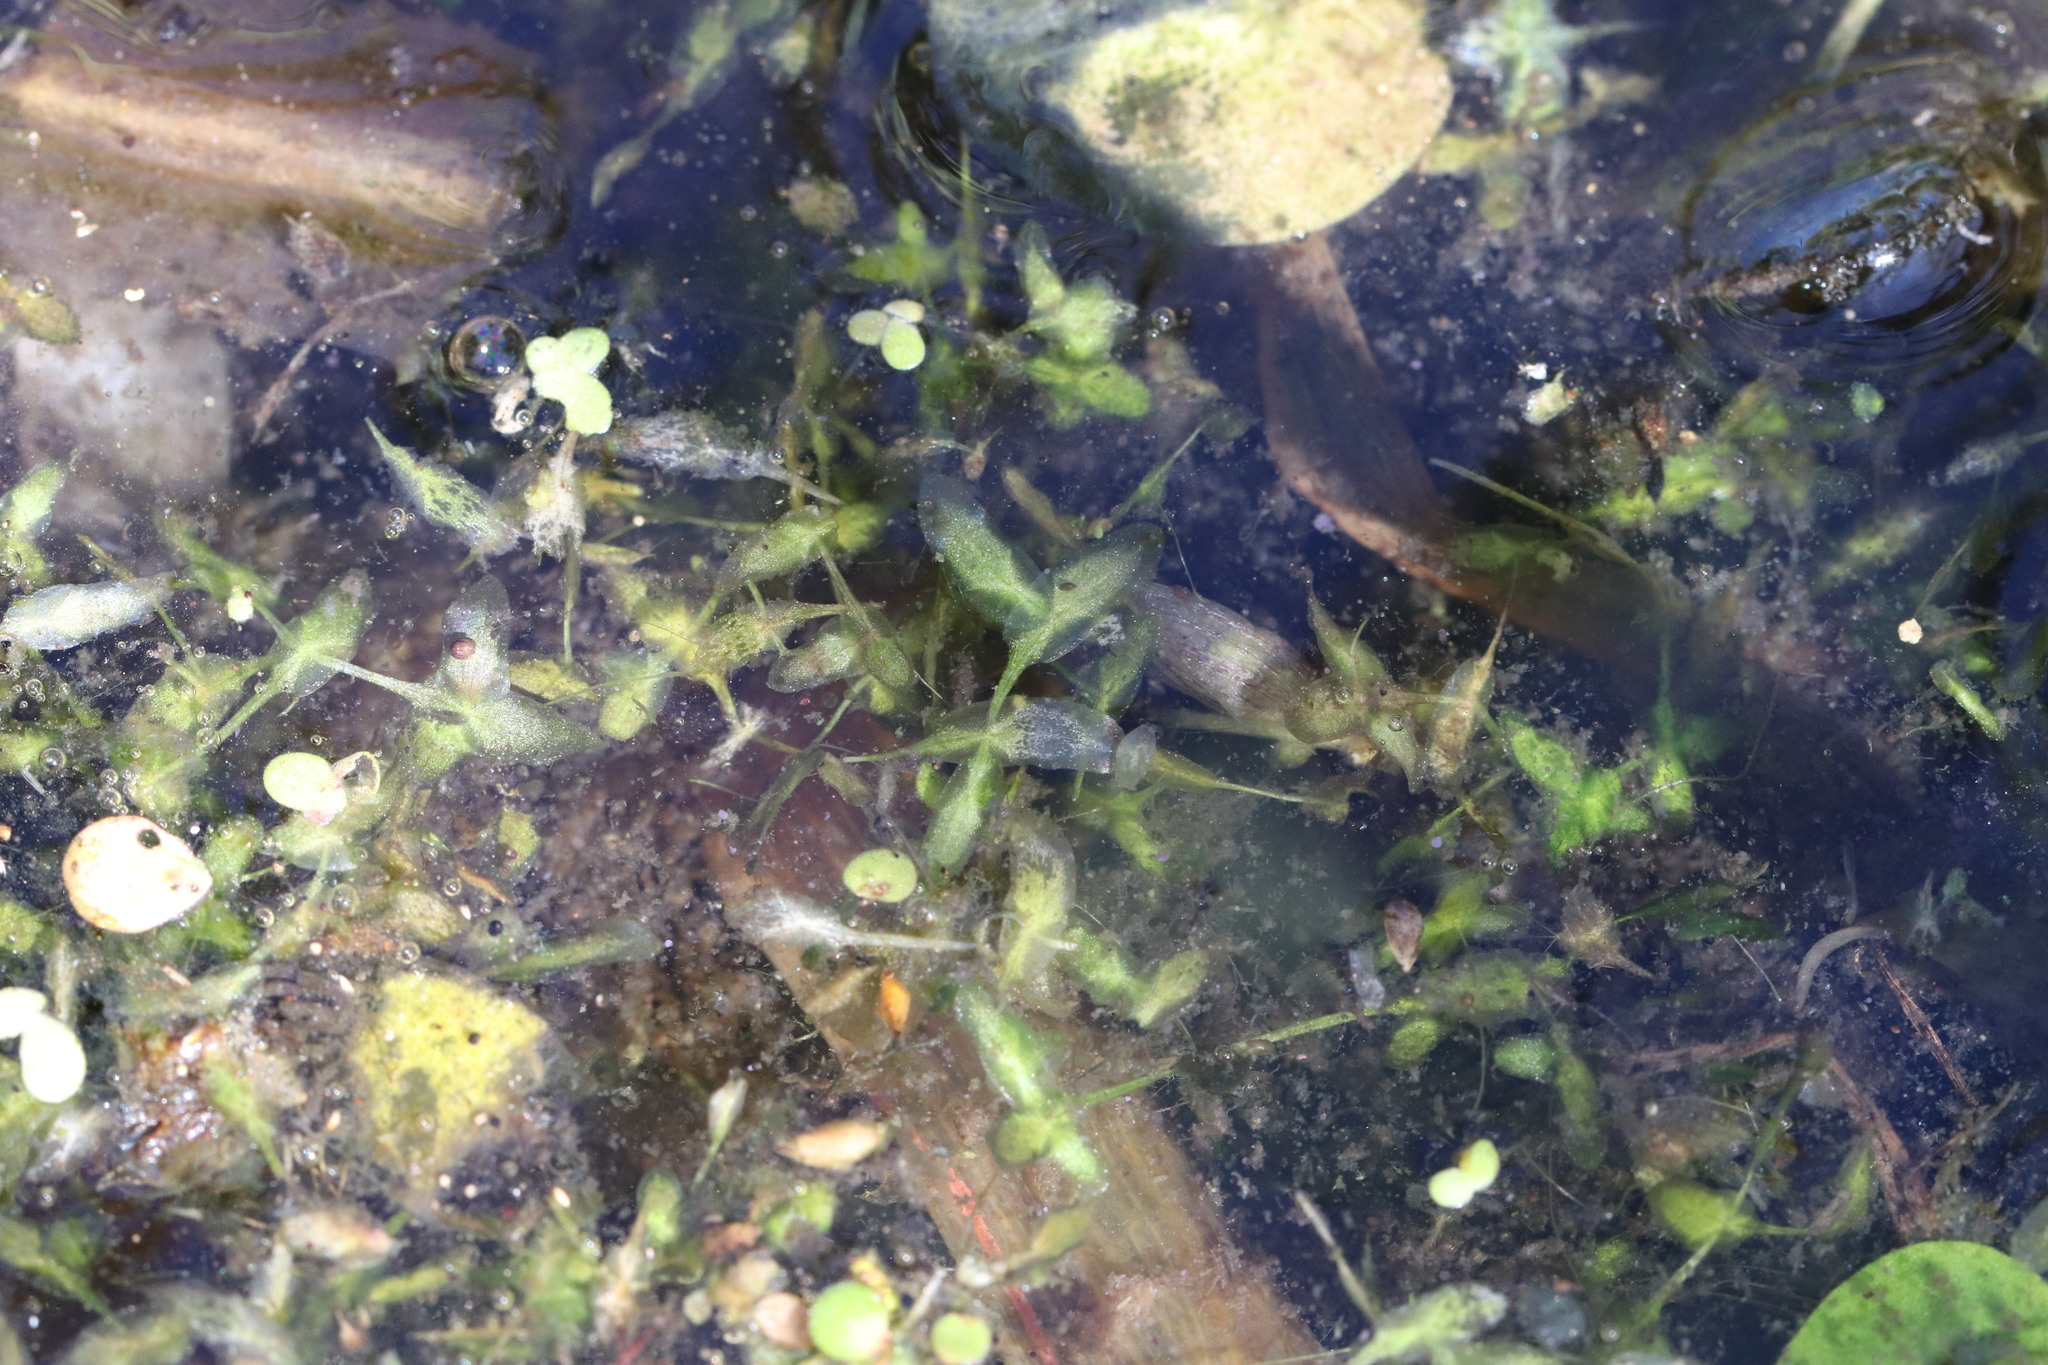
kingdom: Plantae
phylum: Tracheophyta
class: Liliopsida
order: Alismatales
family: Araceae
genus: Lemna
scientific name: Lemna trisulca
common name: Ivy-leaved duckweed
